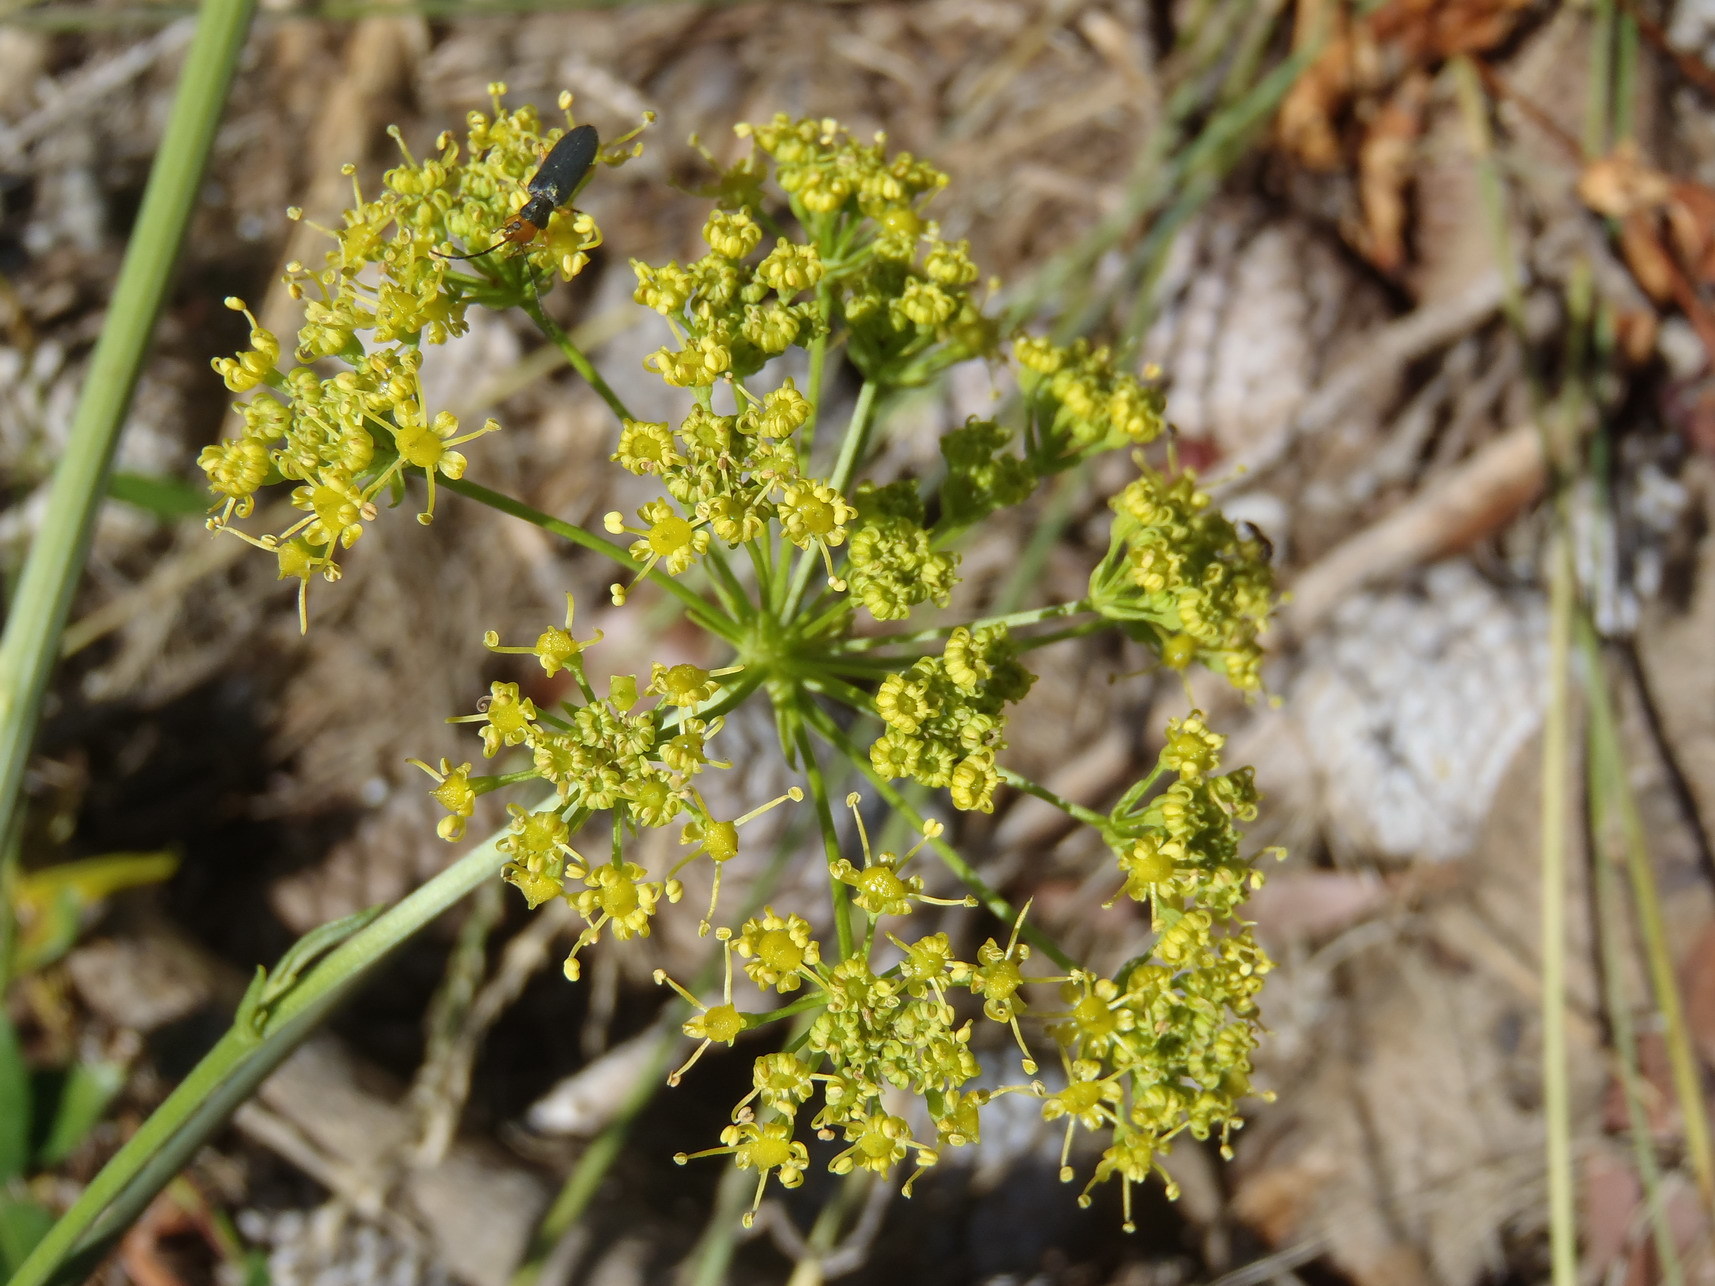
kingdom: Plantae
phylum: Tracheophyta
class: Magnoliopsida
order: Apiales
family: Apiaceae
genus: Glia
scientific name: Glia prolifera
